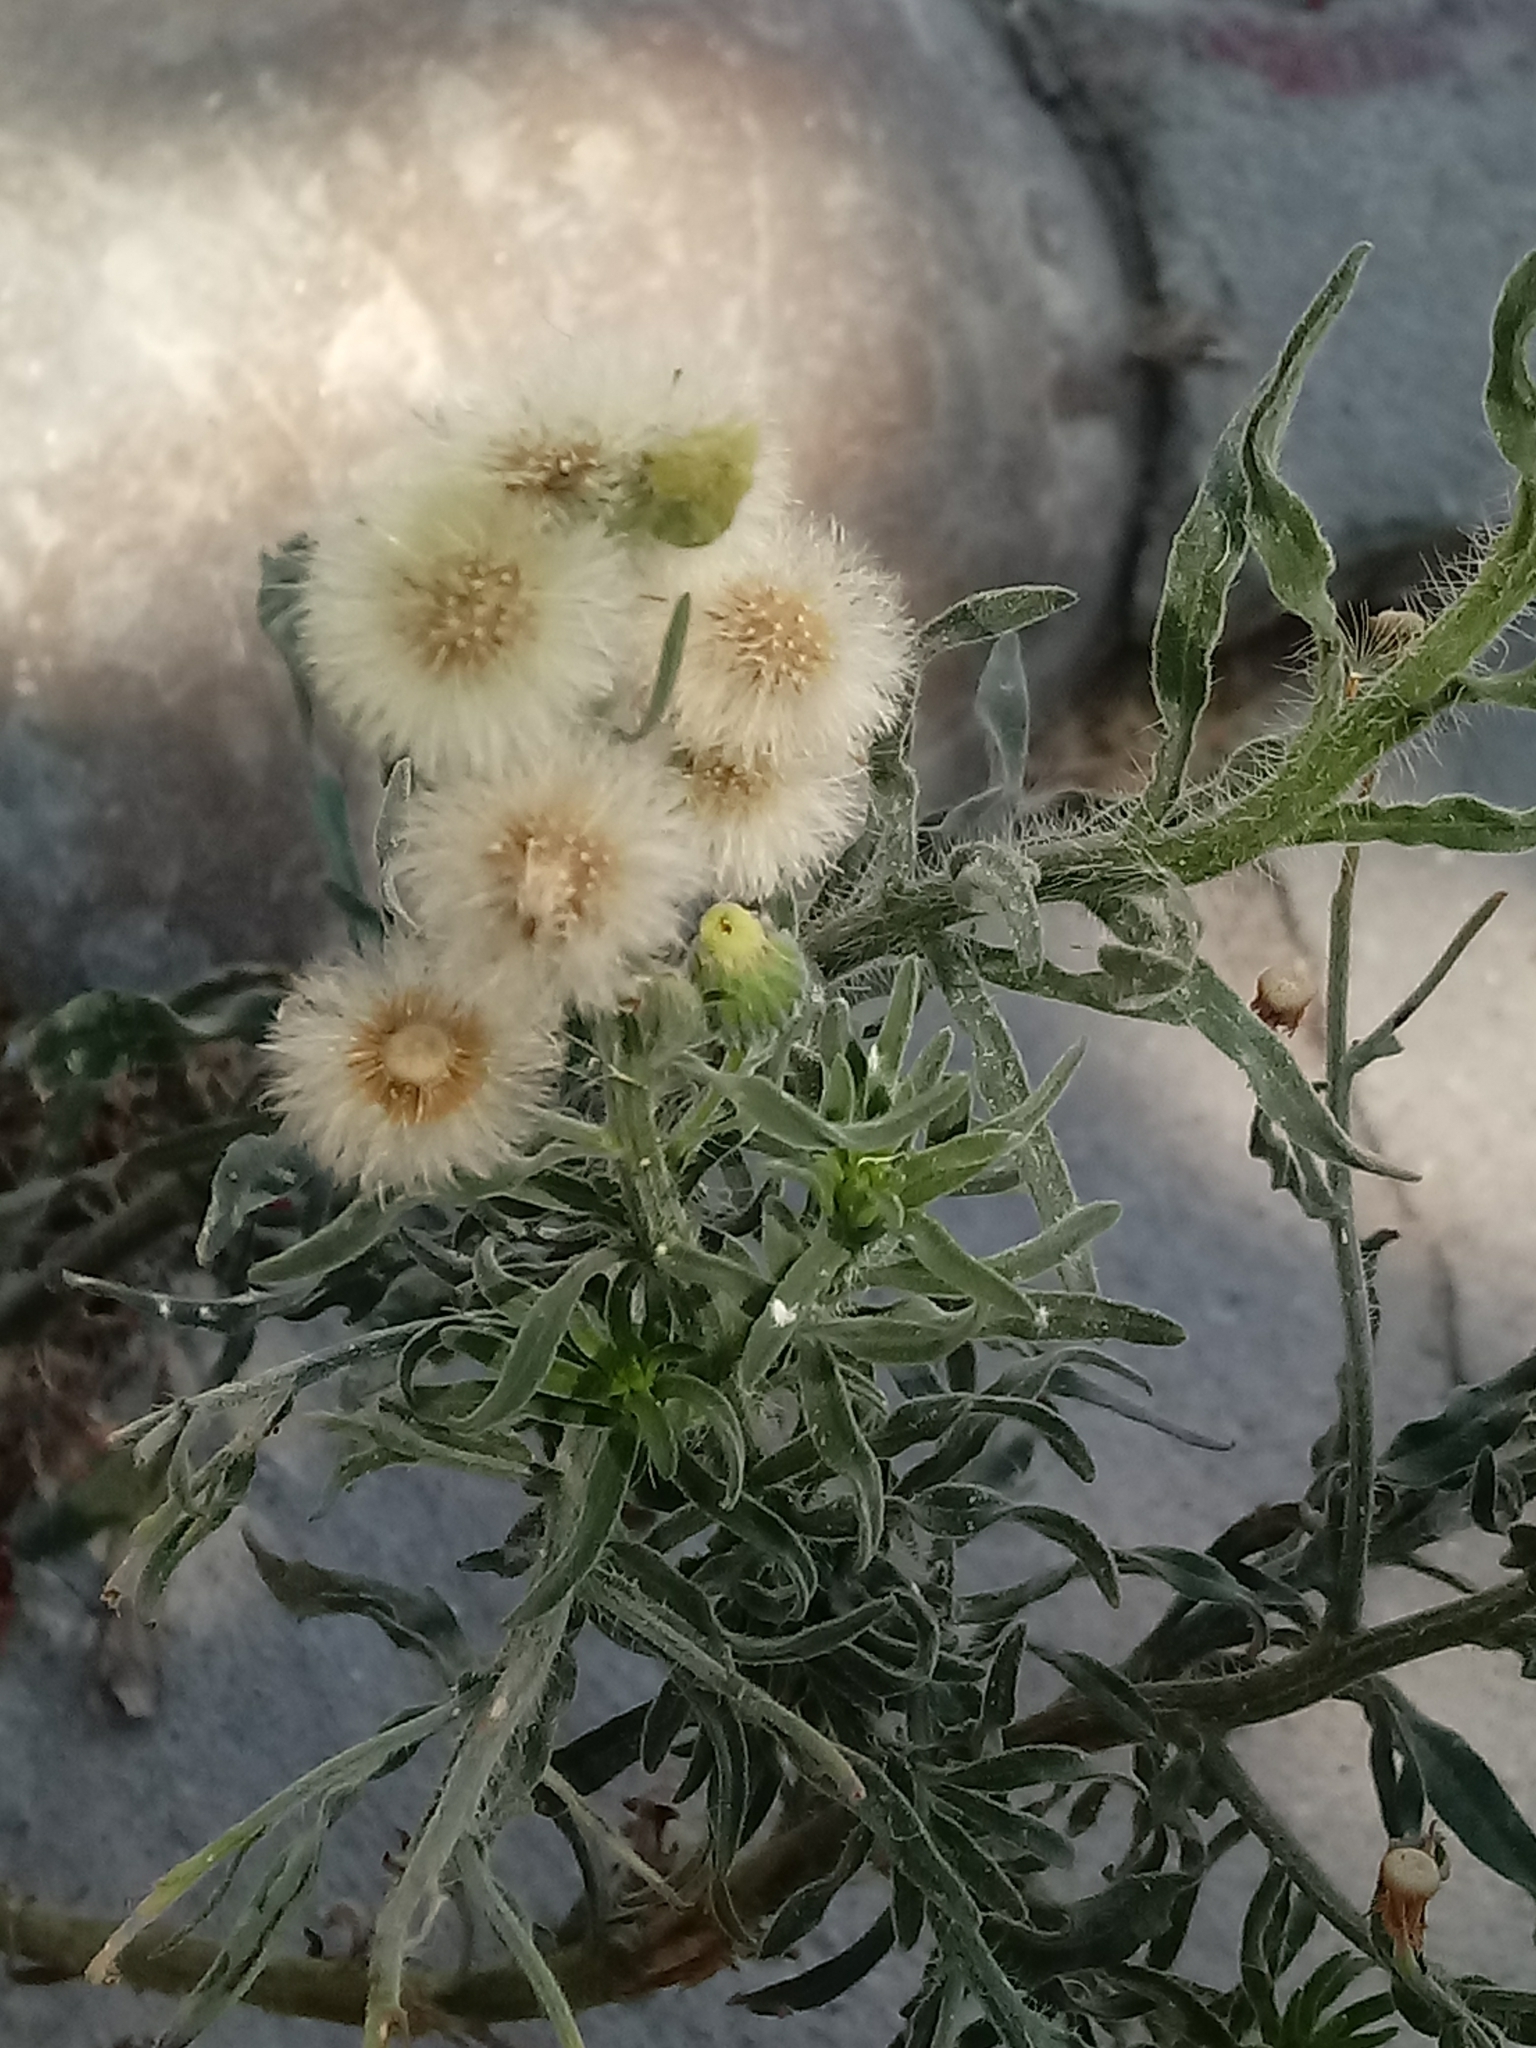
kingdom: Plantae
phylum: Tracheophyta
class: Magnoliopsida
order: Asterales
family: Asteraceae
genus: Erigeron
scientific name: Erigeron bonariensis
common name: Argentine fleabane
